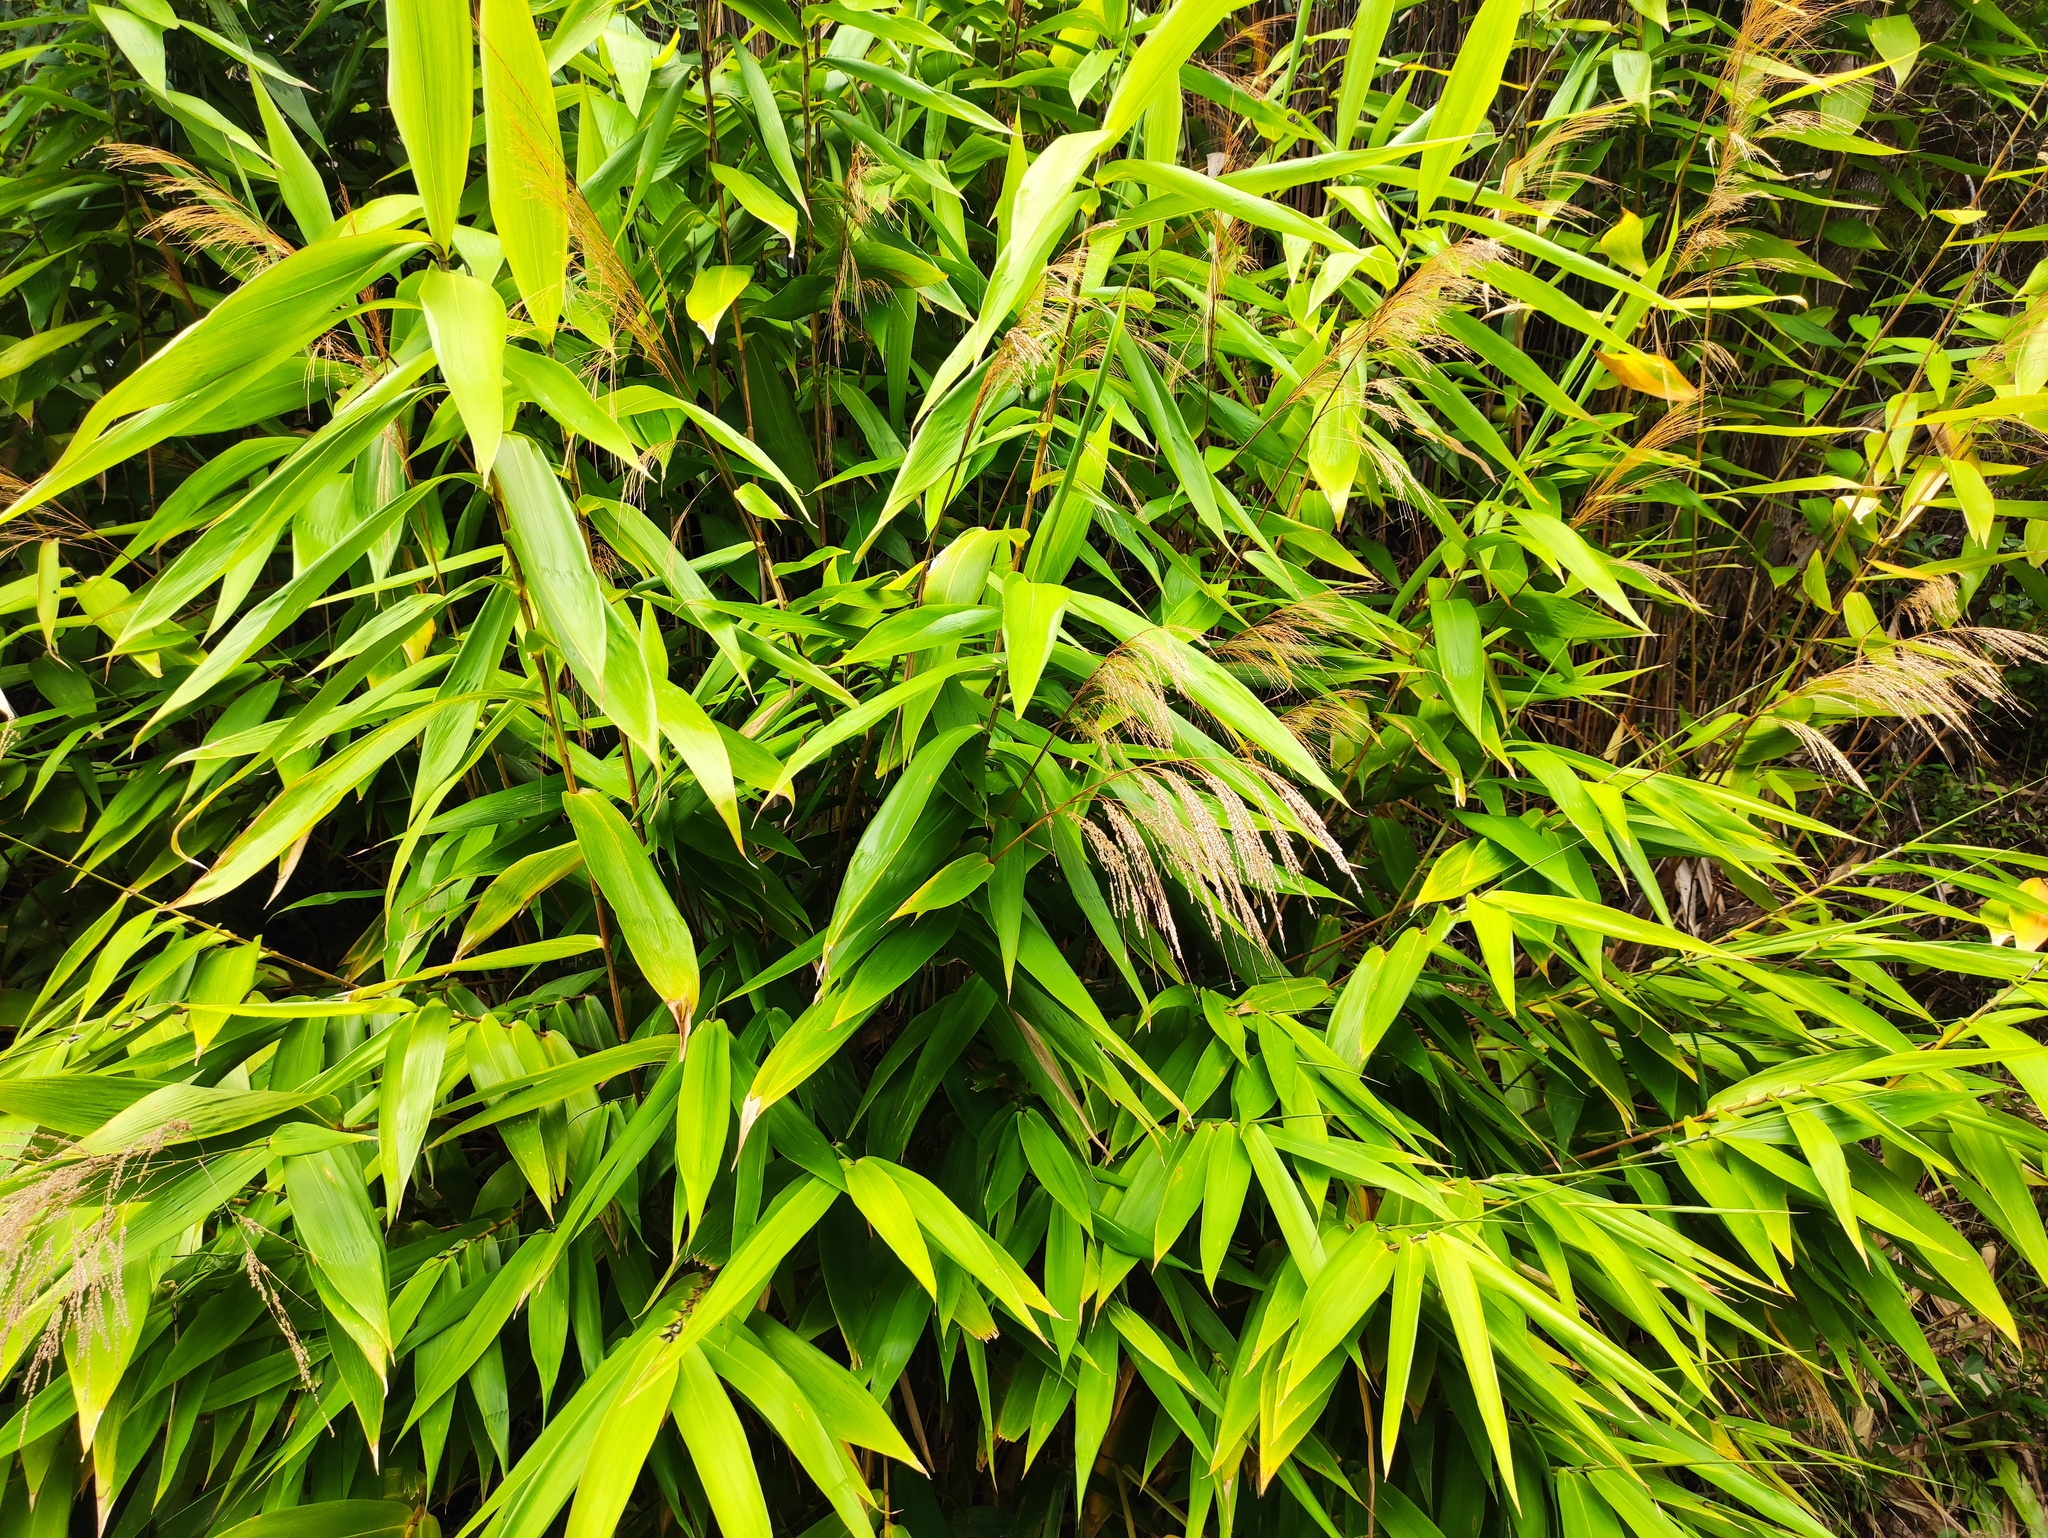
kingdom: Plantae
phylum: Tracheophyta
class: Liliopsida
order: Poales
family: Poaceae
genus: Thysanolaena
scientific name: Thysanolaena latifolia
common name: Tiger grass
